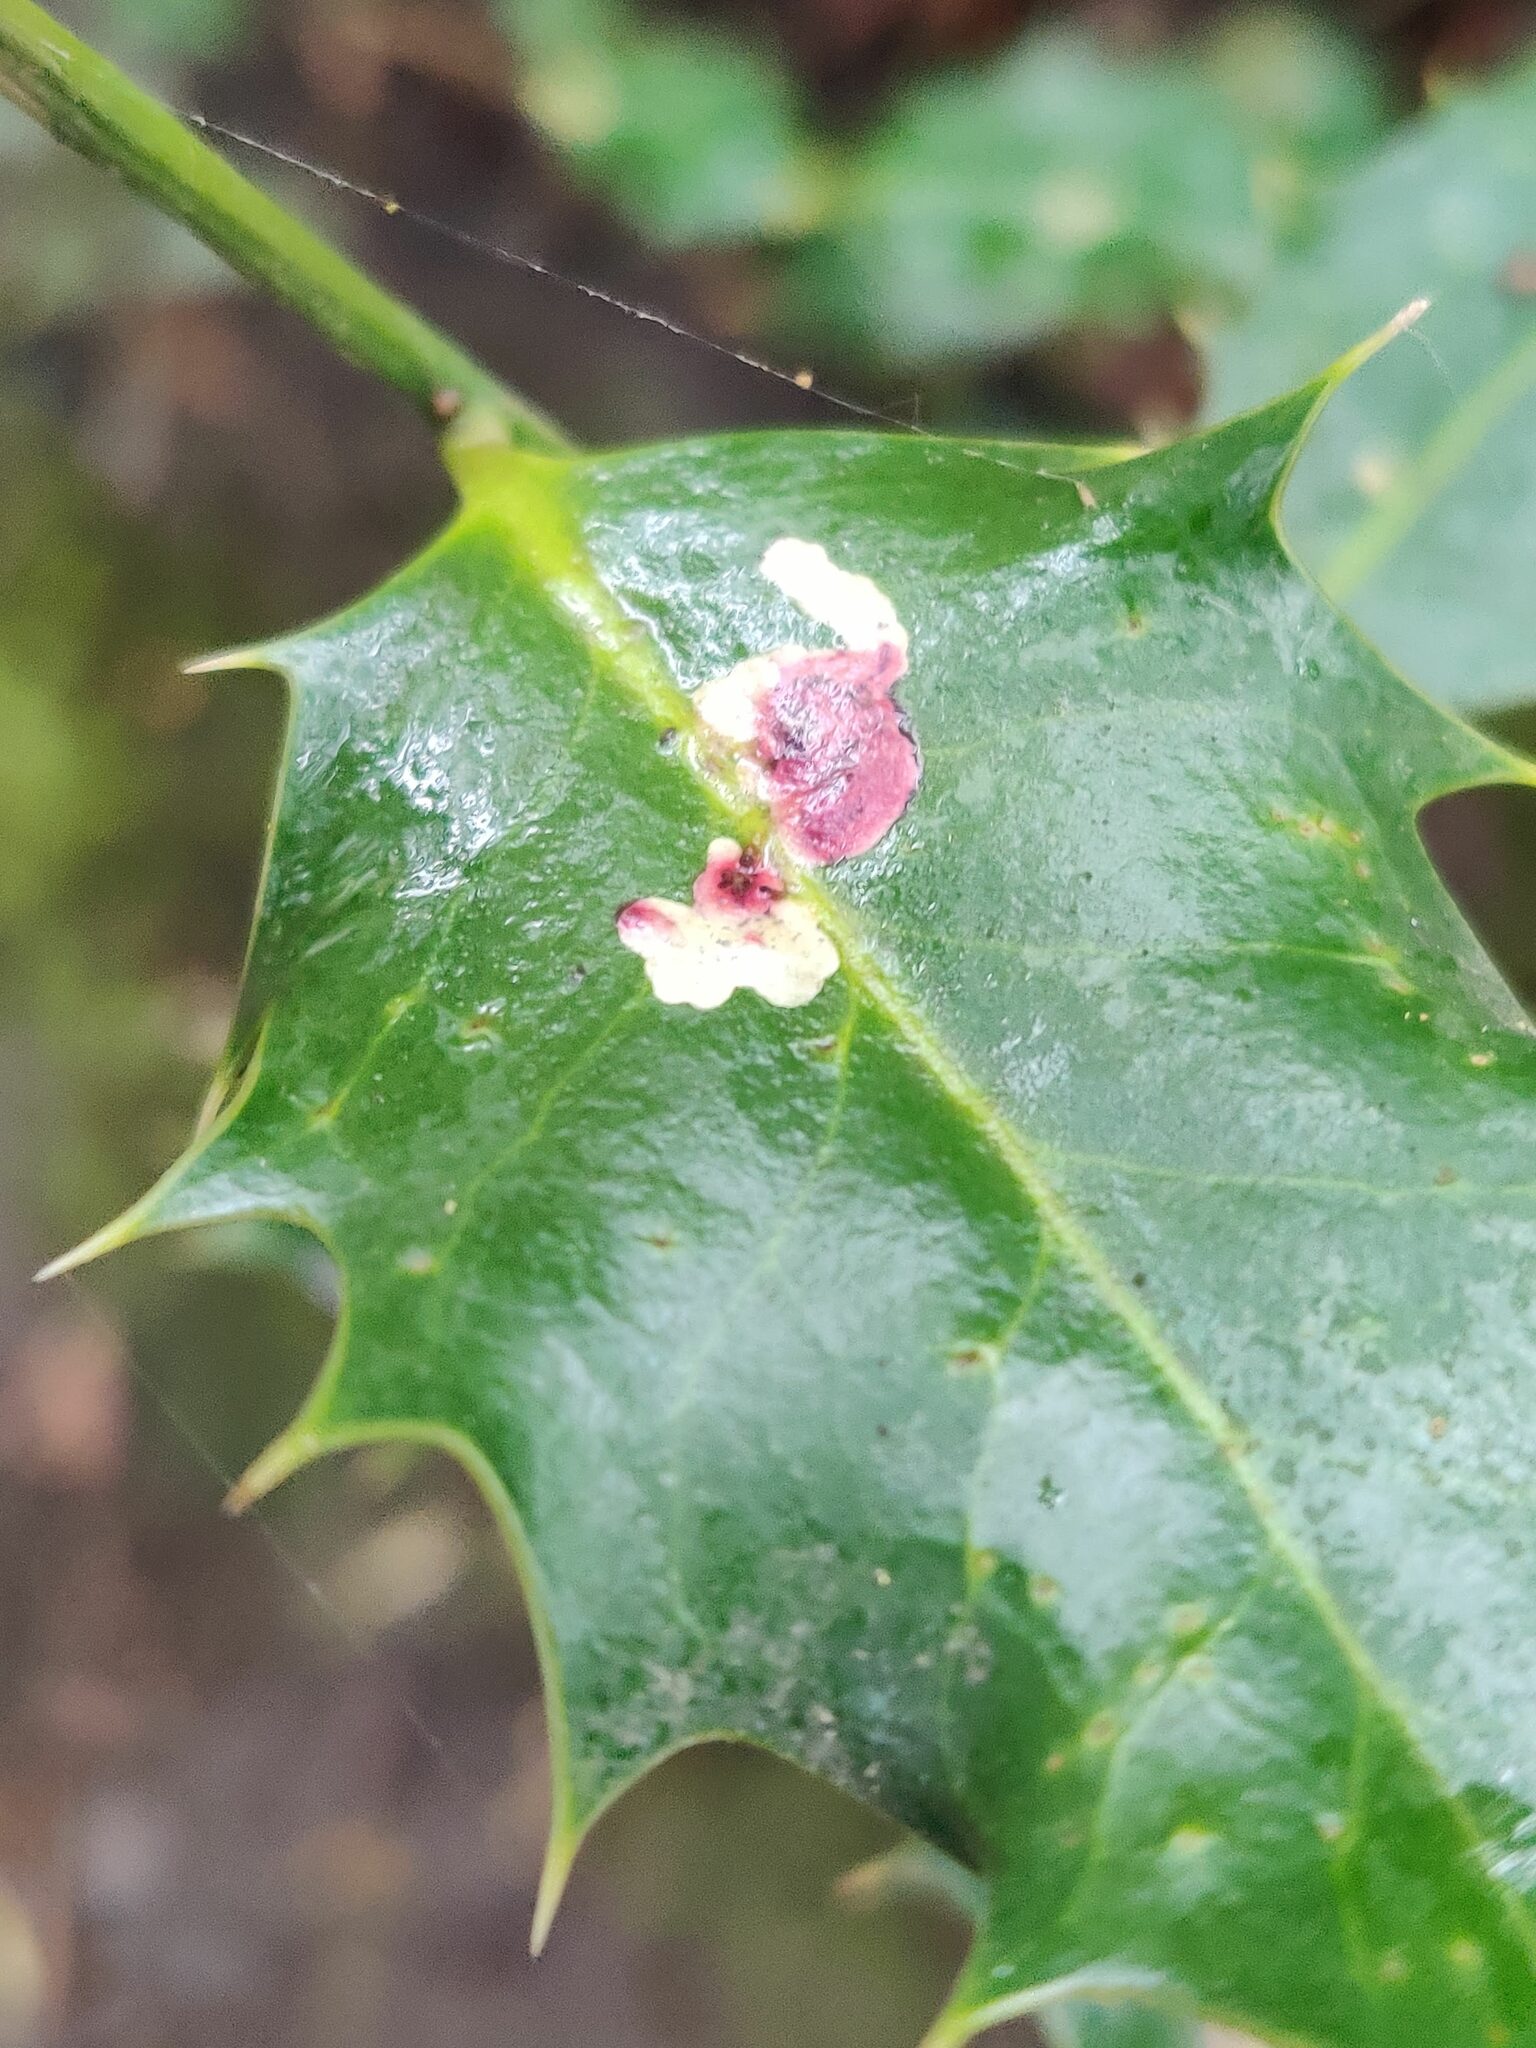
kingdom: Animalia
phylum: Arthropoda
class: Insecta
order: Diptera
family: Agromyzidae
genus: Phytomyza
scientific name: Phytomyza ilicis
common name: Holly leafminer
